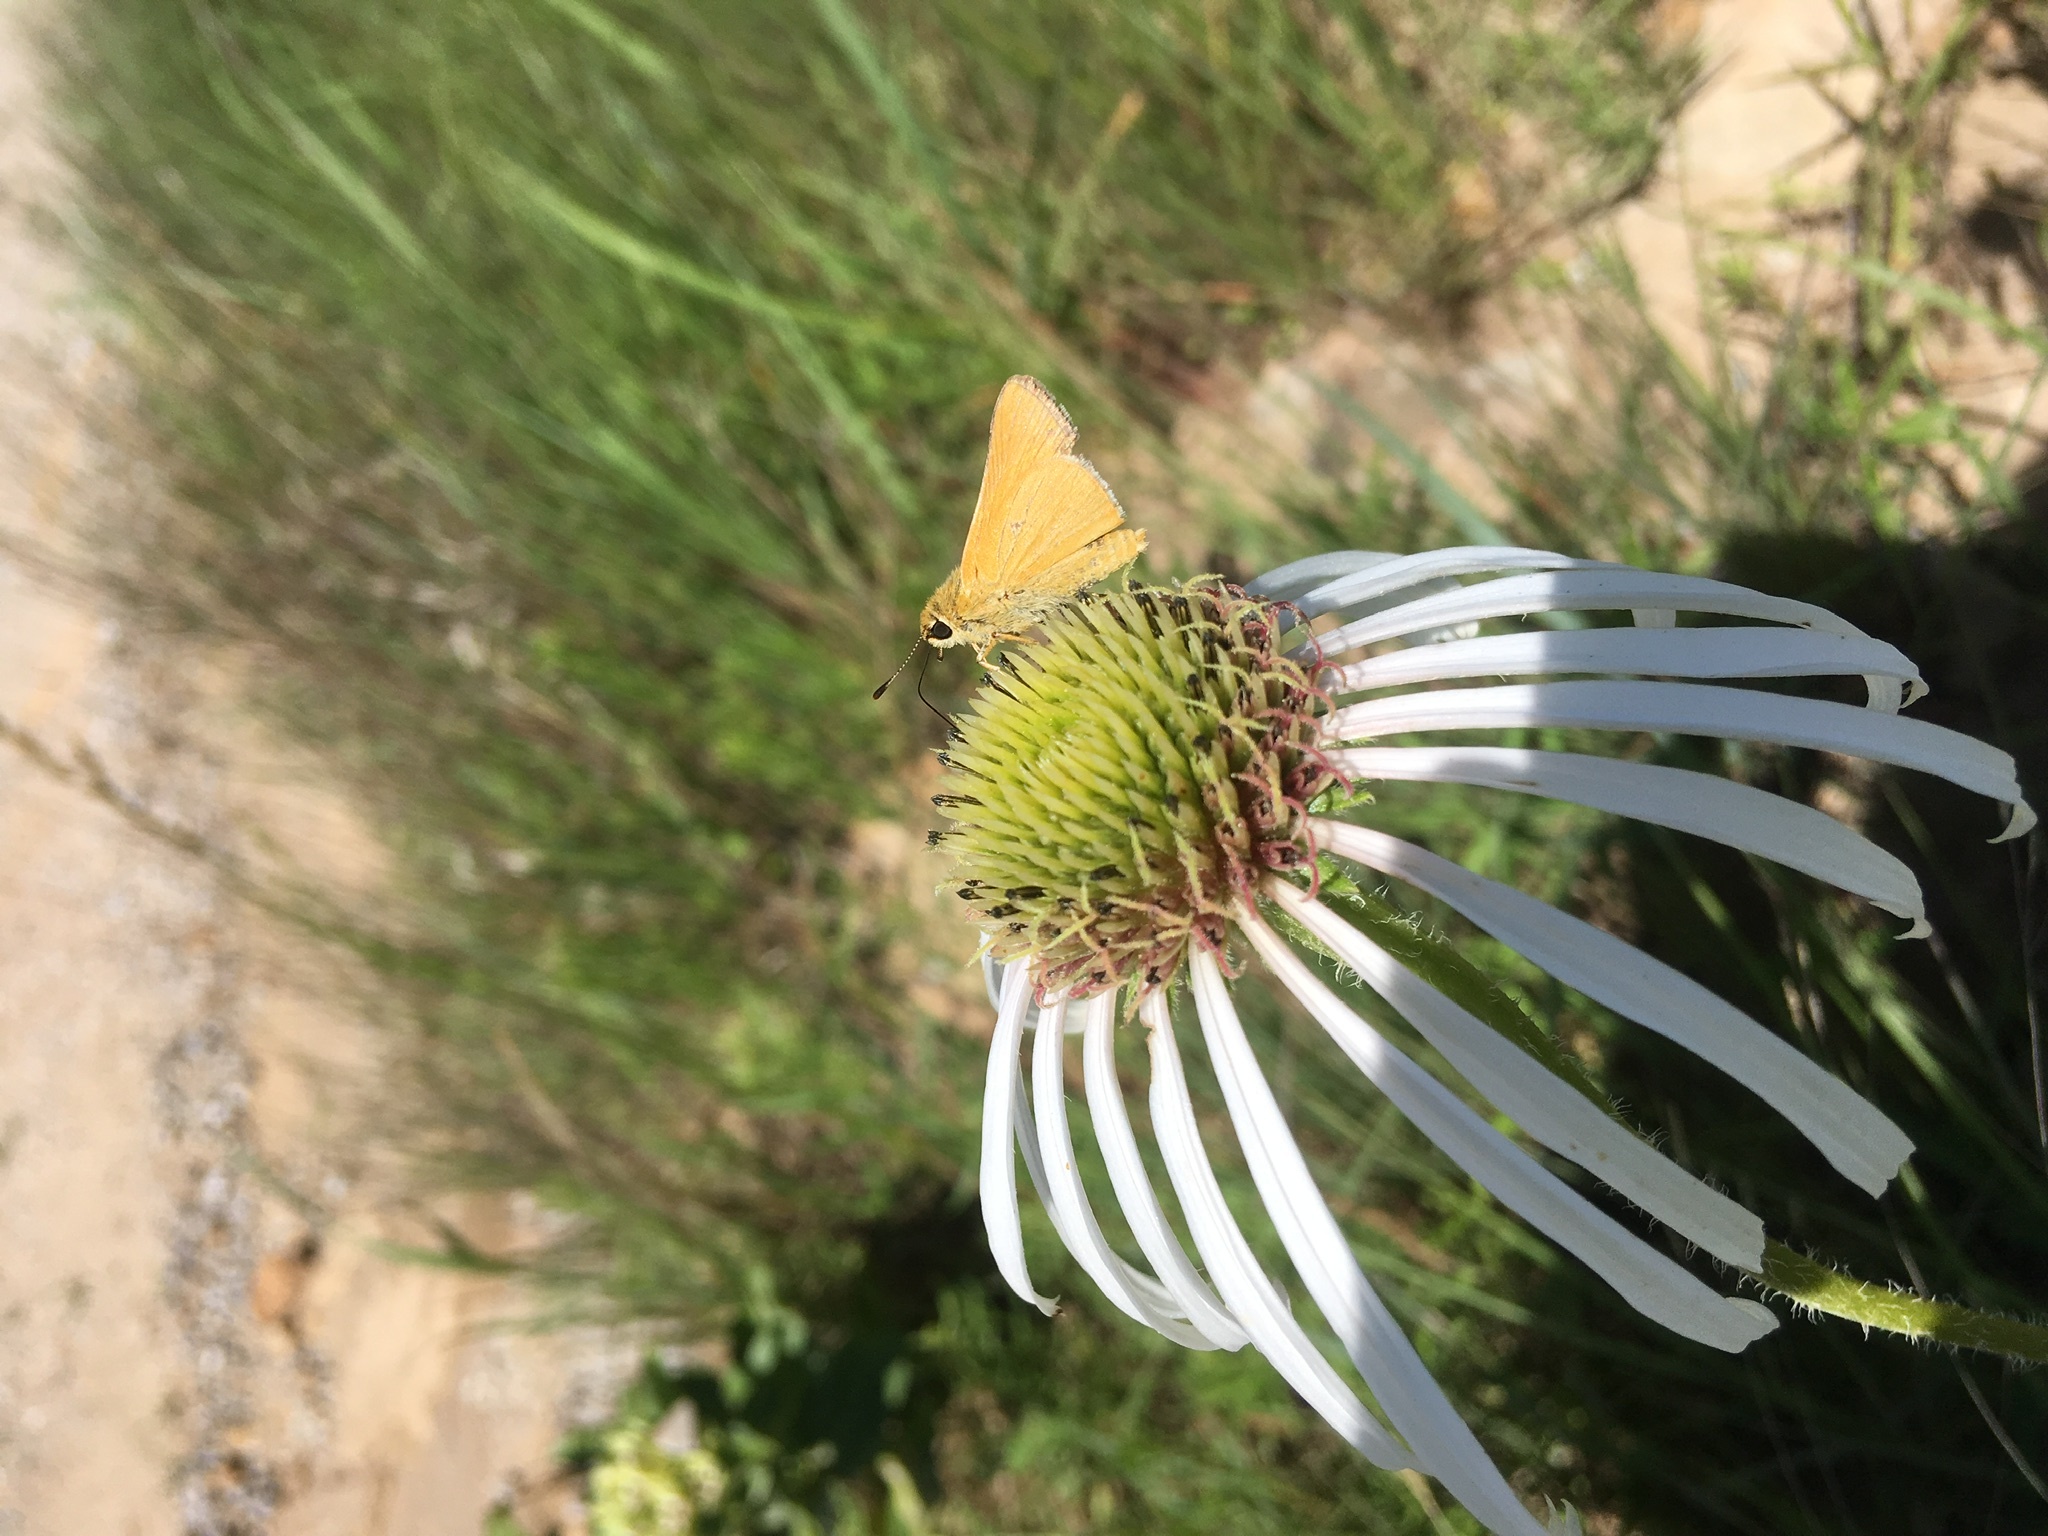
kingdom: Animalia
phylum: Arthropoda
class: Insecta
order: Lepidoptera
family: Hesperiidae
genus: Atrytone
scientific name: Atrytone arogos
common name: Arogos skipper
